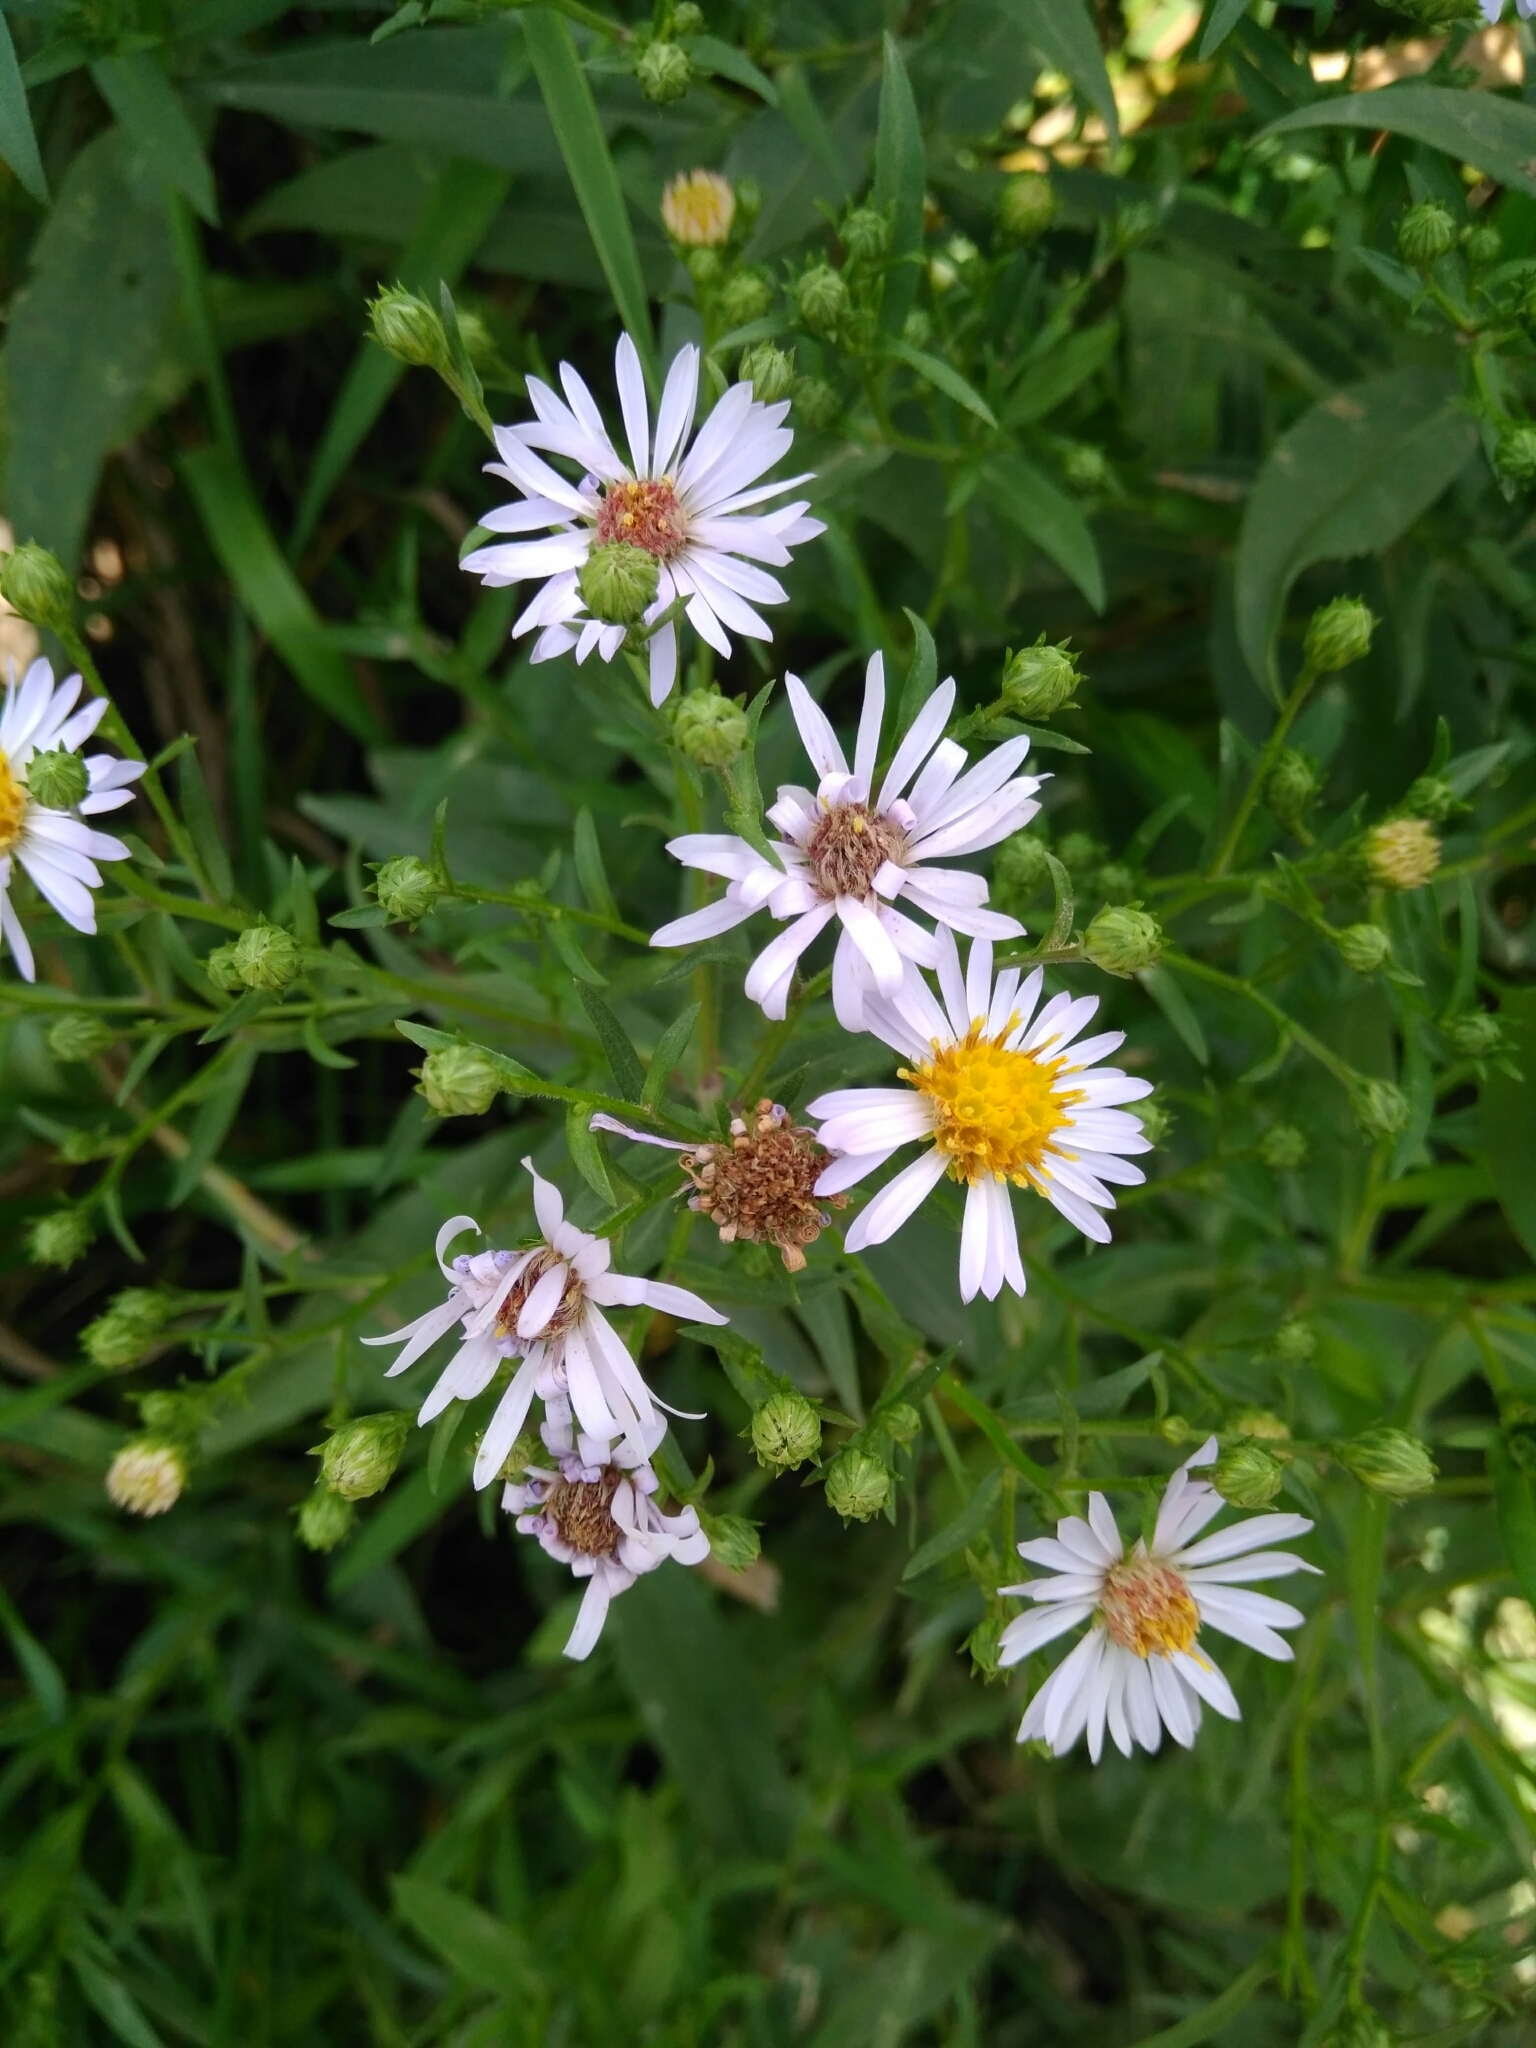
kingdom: Plantae
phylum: Tracheophyta
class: Magnoliopsida
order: Asterales
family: Asteraceae
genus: Symphyotrichum
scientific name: Symphyotrichum salignum
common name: Common michaelmas daisy
